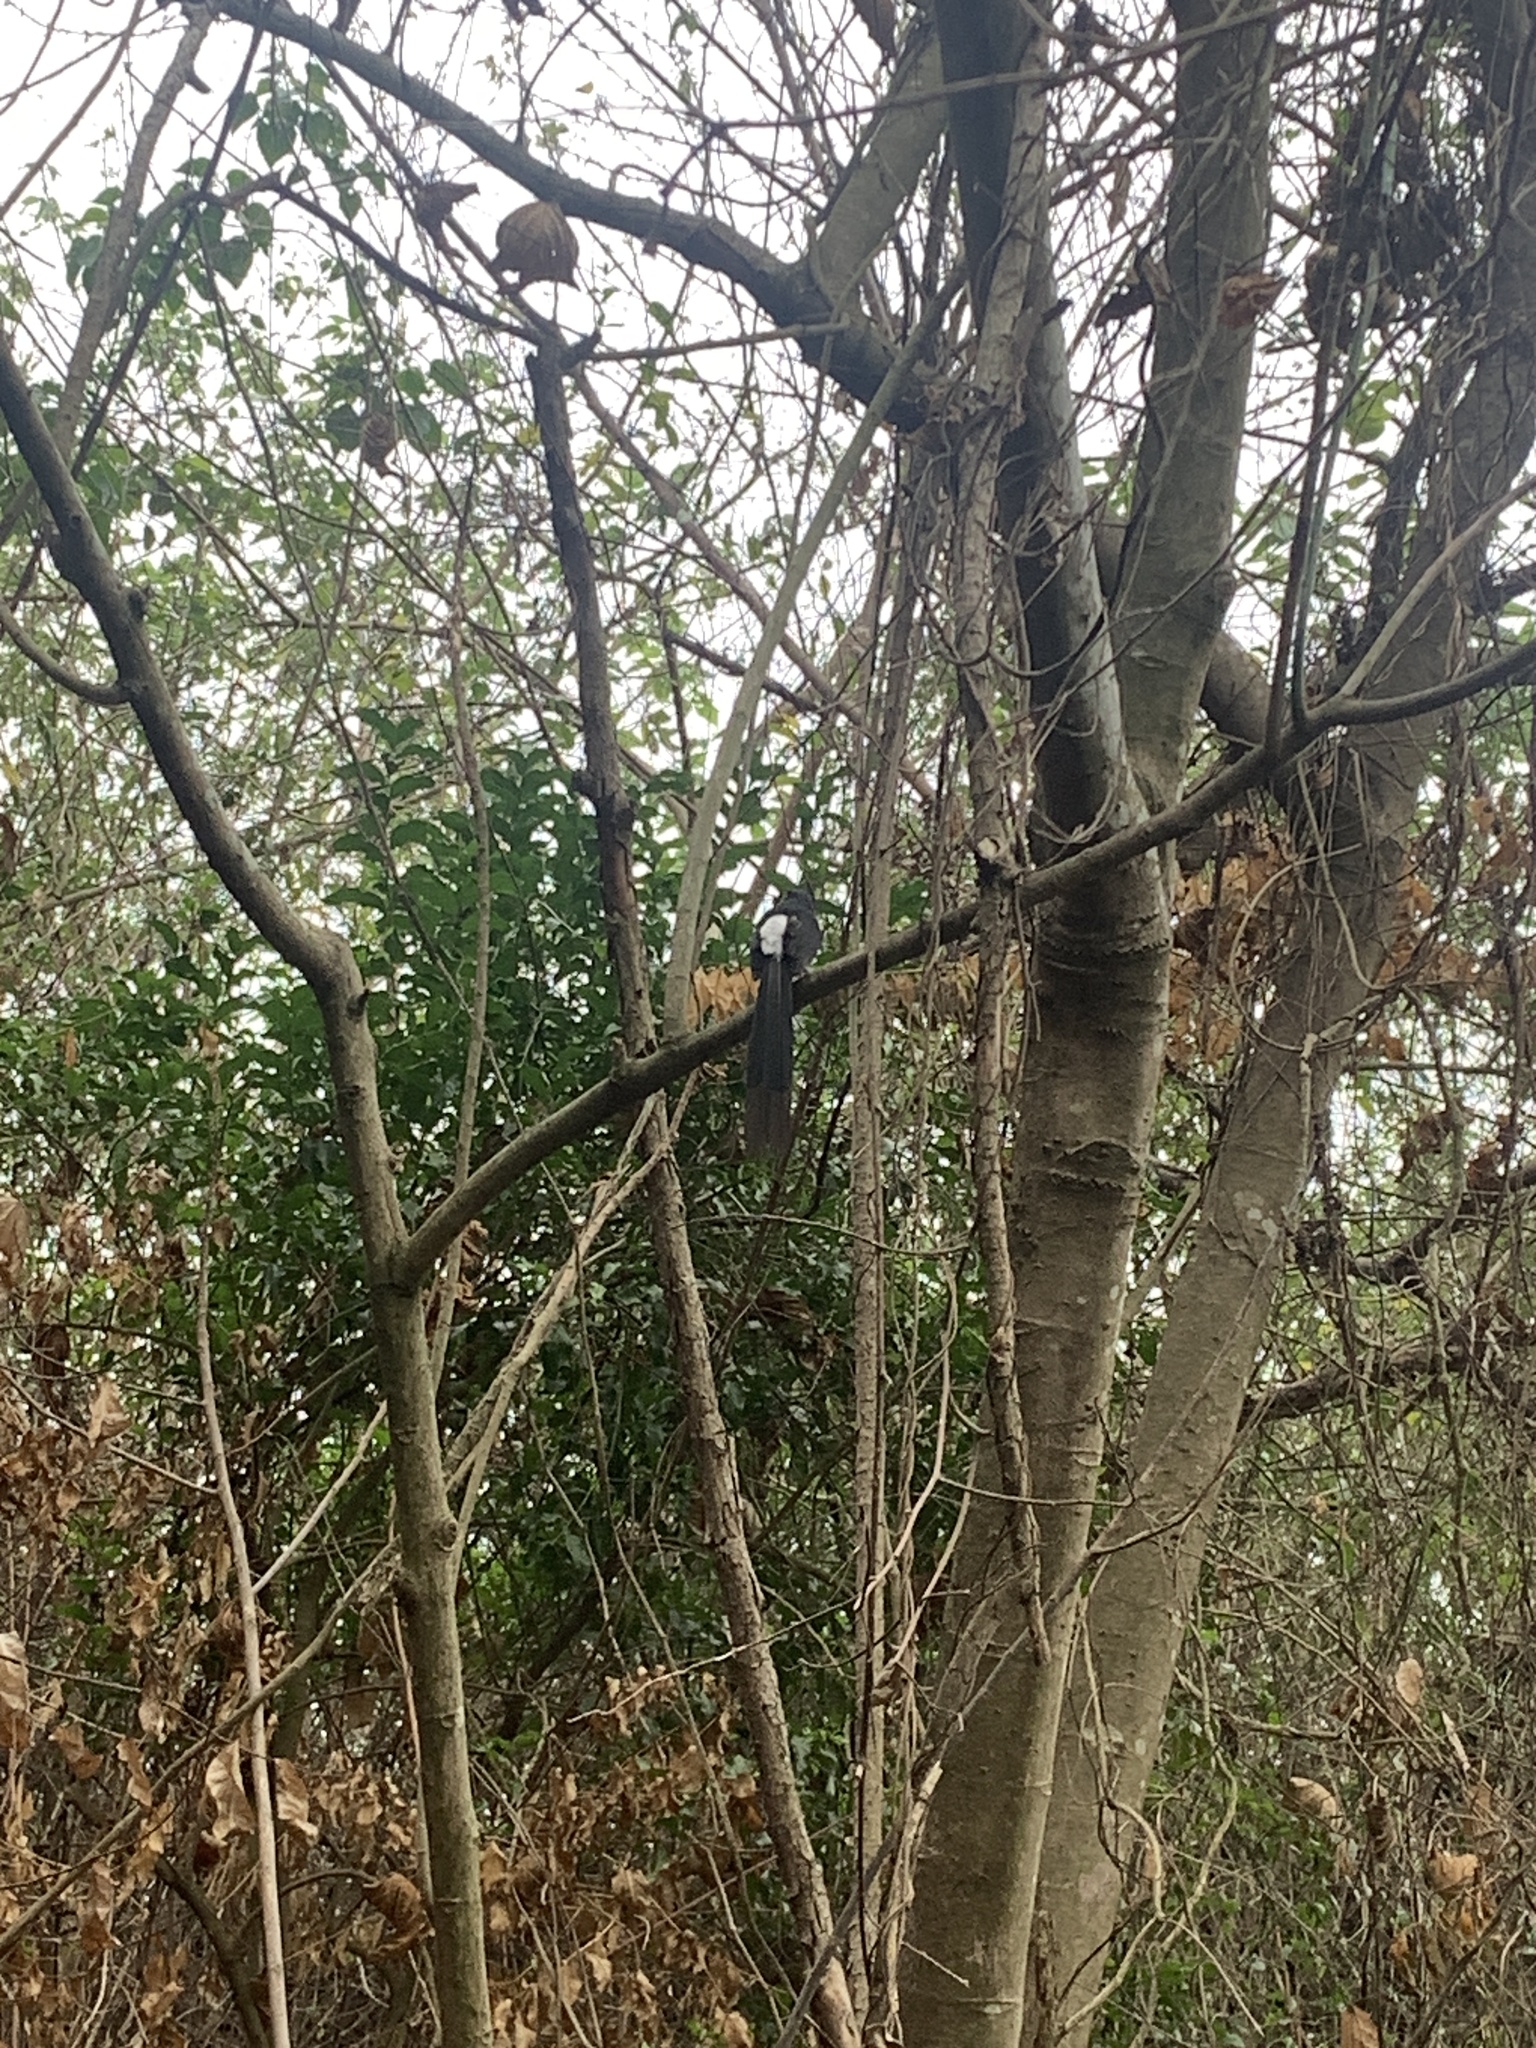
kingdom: Animalia
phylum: Chordata
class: Aves
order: Passeriformes
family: Muscicapidae
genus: Copsychus
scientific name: Copsychus malabaricus
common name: White-rumped shama
